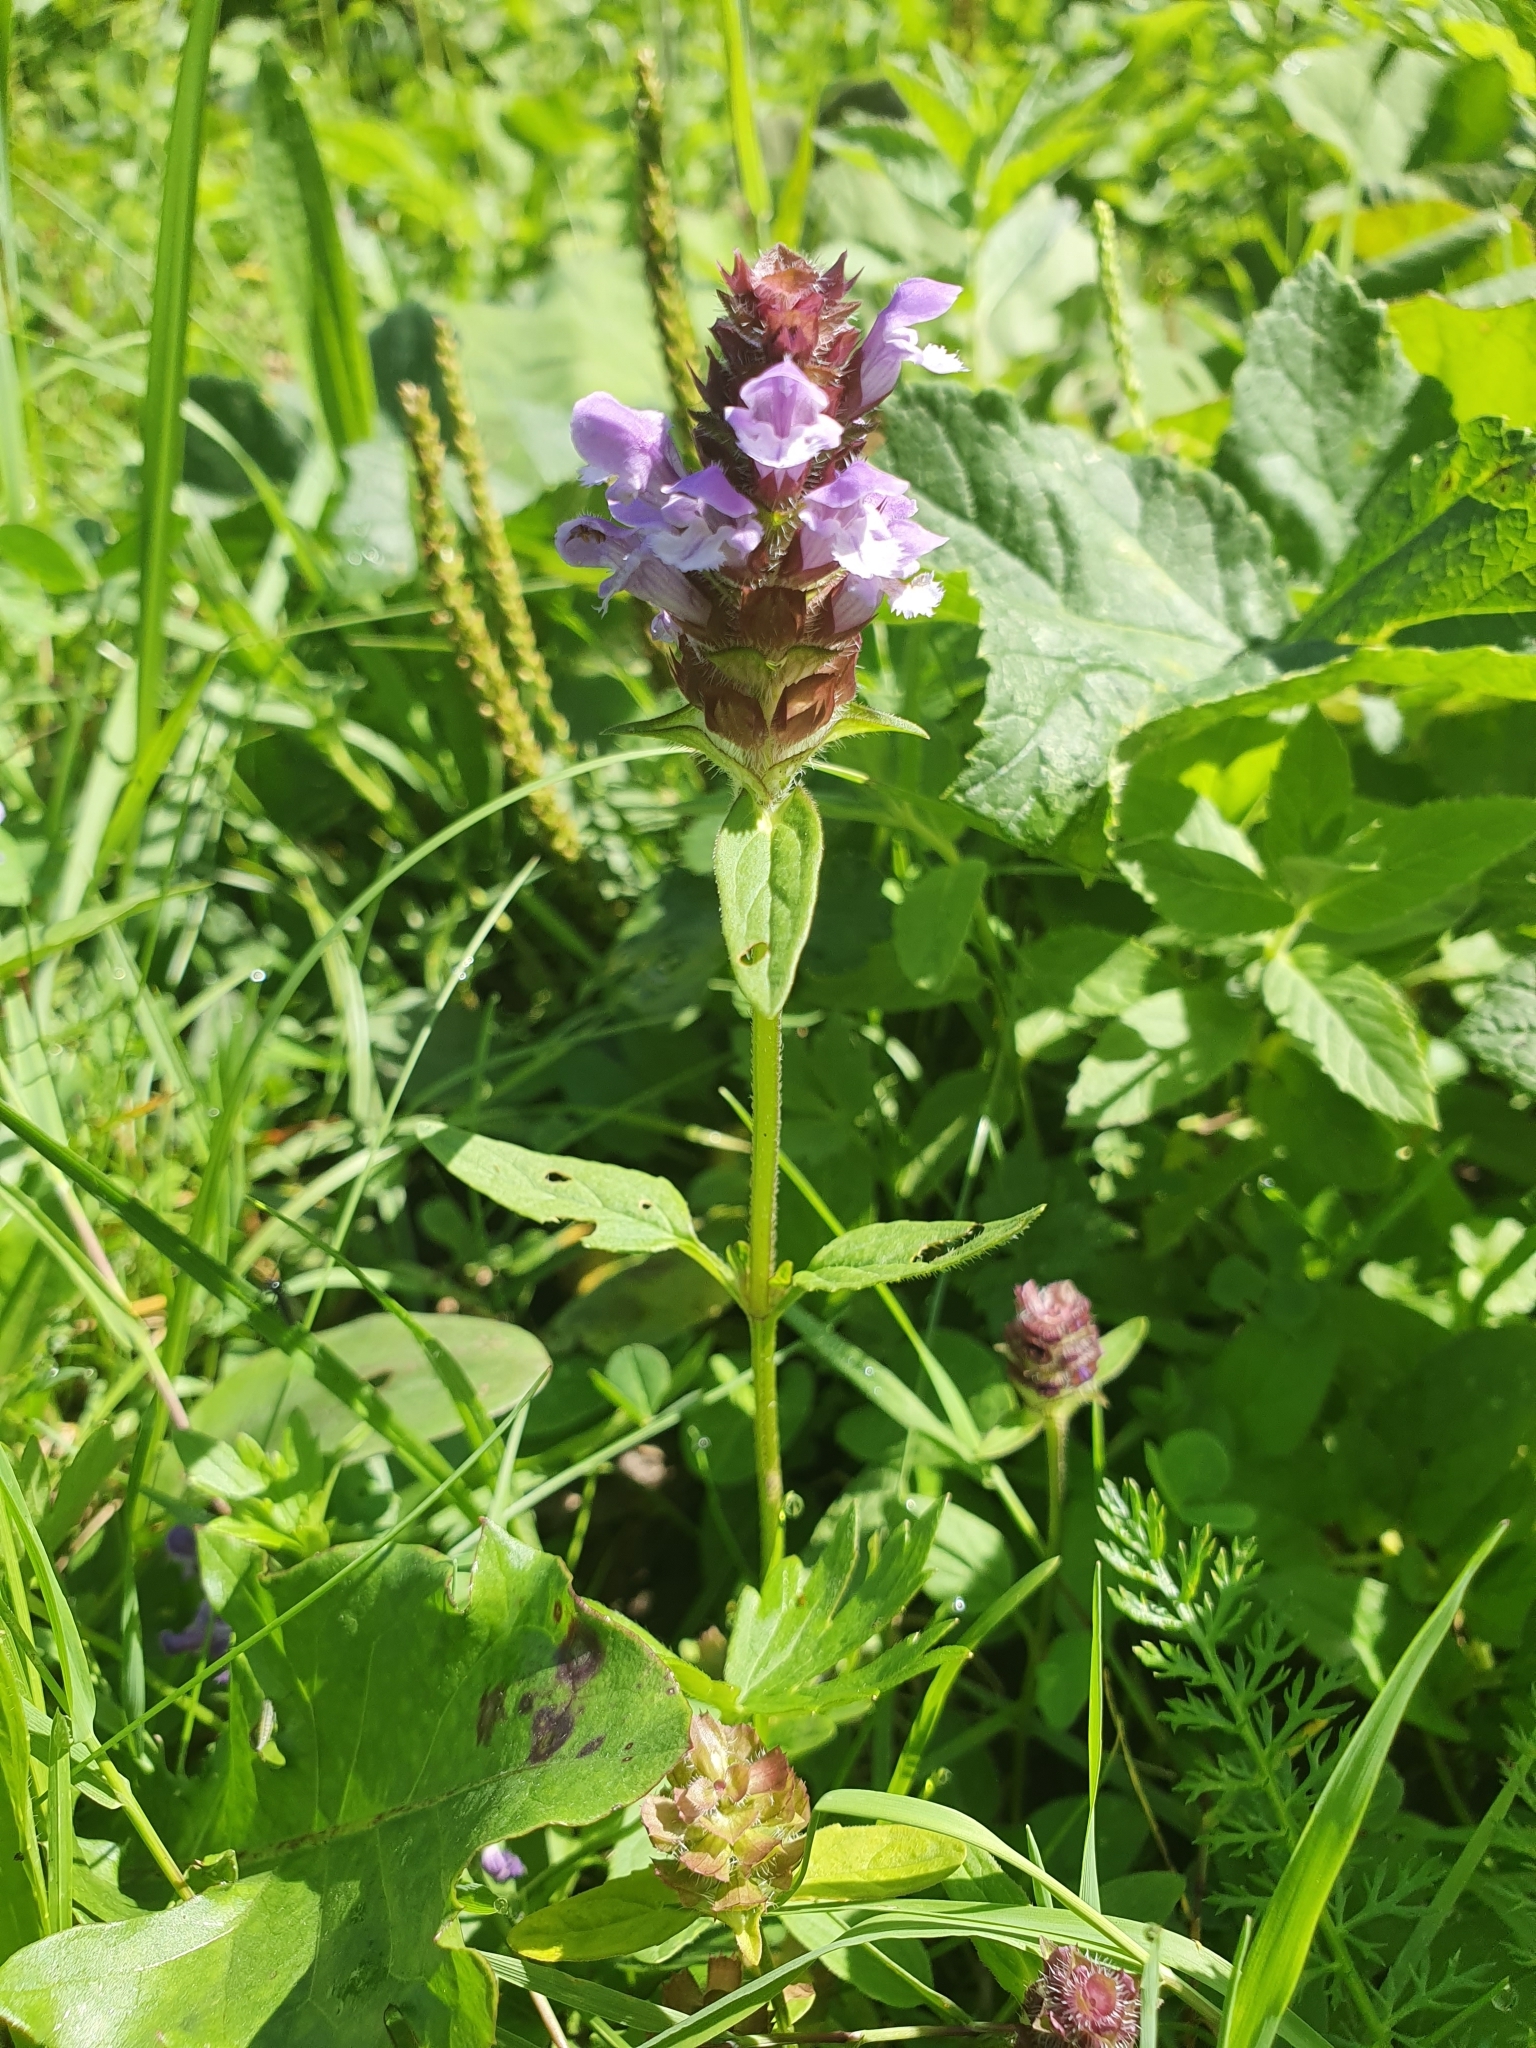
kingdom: Plantae
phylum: Tracheophyta
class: Magnoliopsida
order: Lamiales
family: Lamiaceae
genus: Prunella
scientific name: Prunella vulgaris
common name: Heal-all
